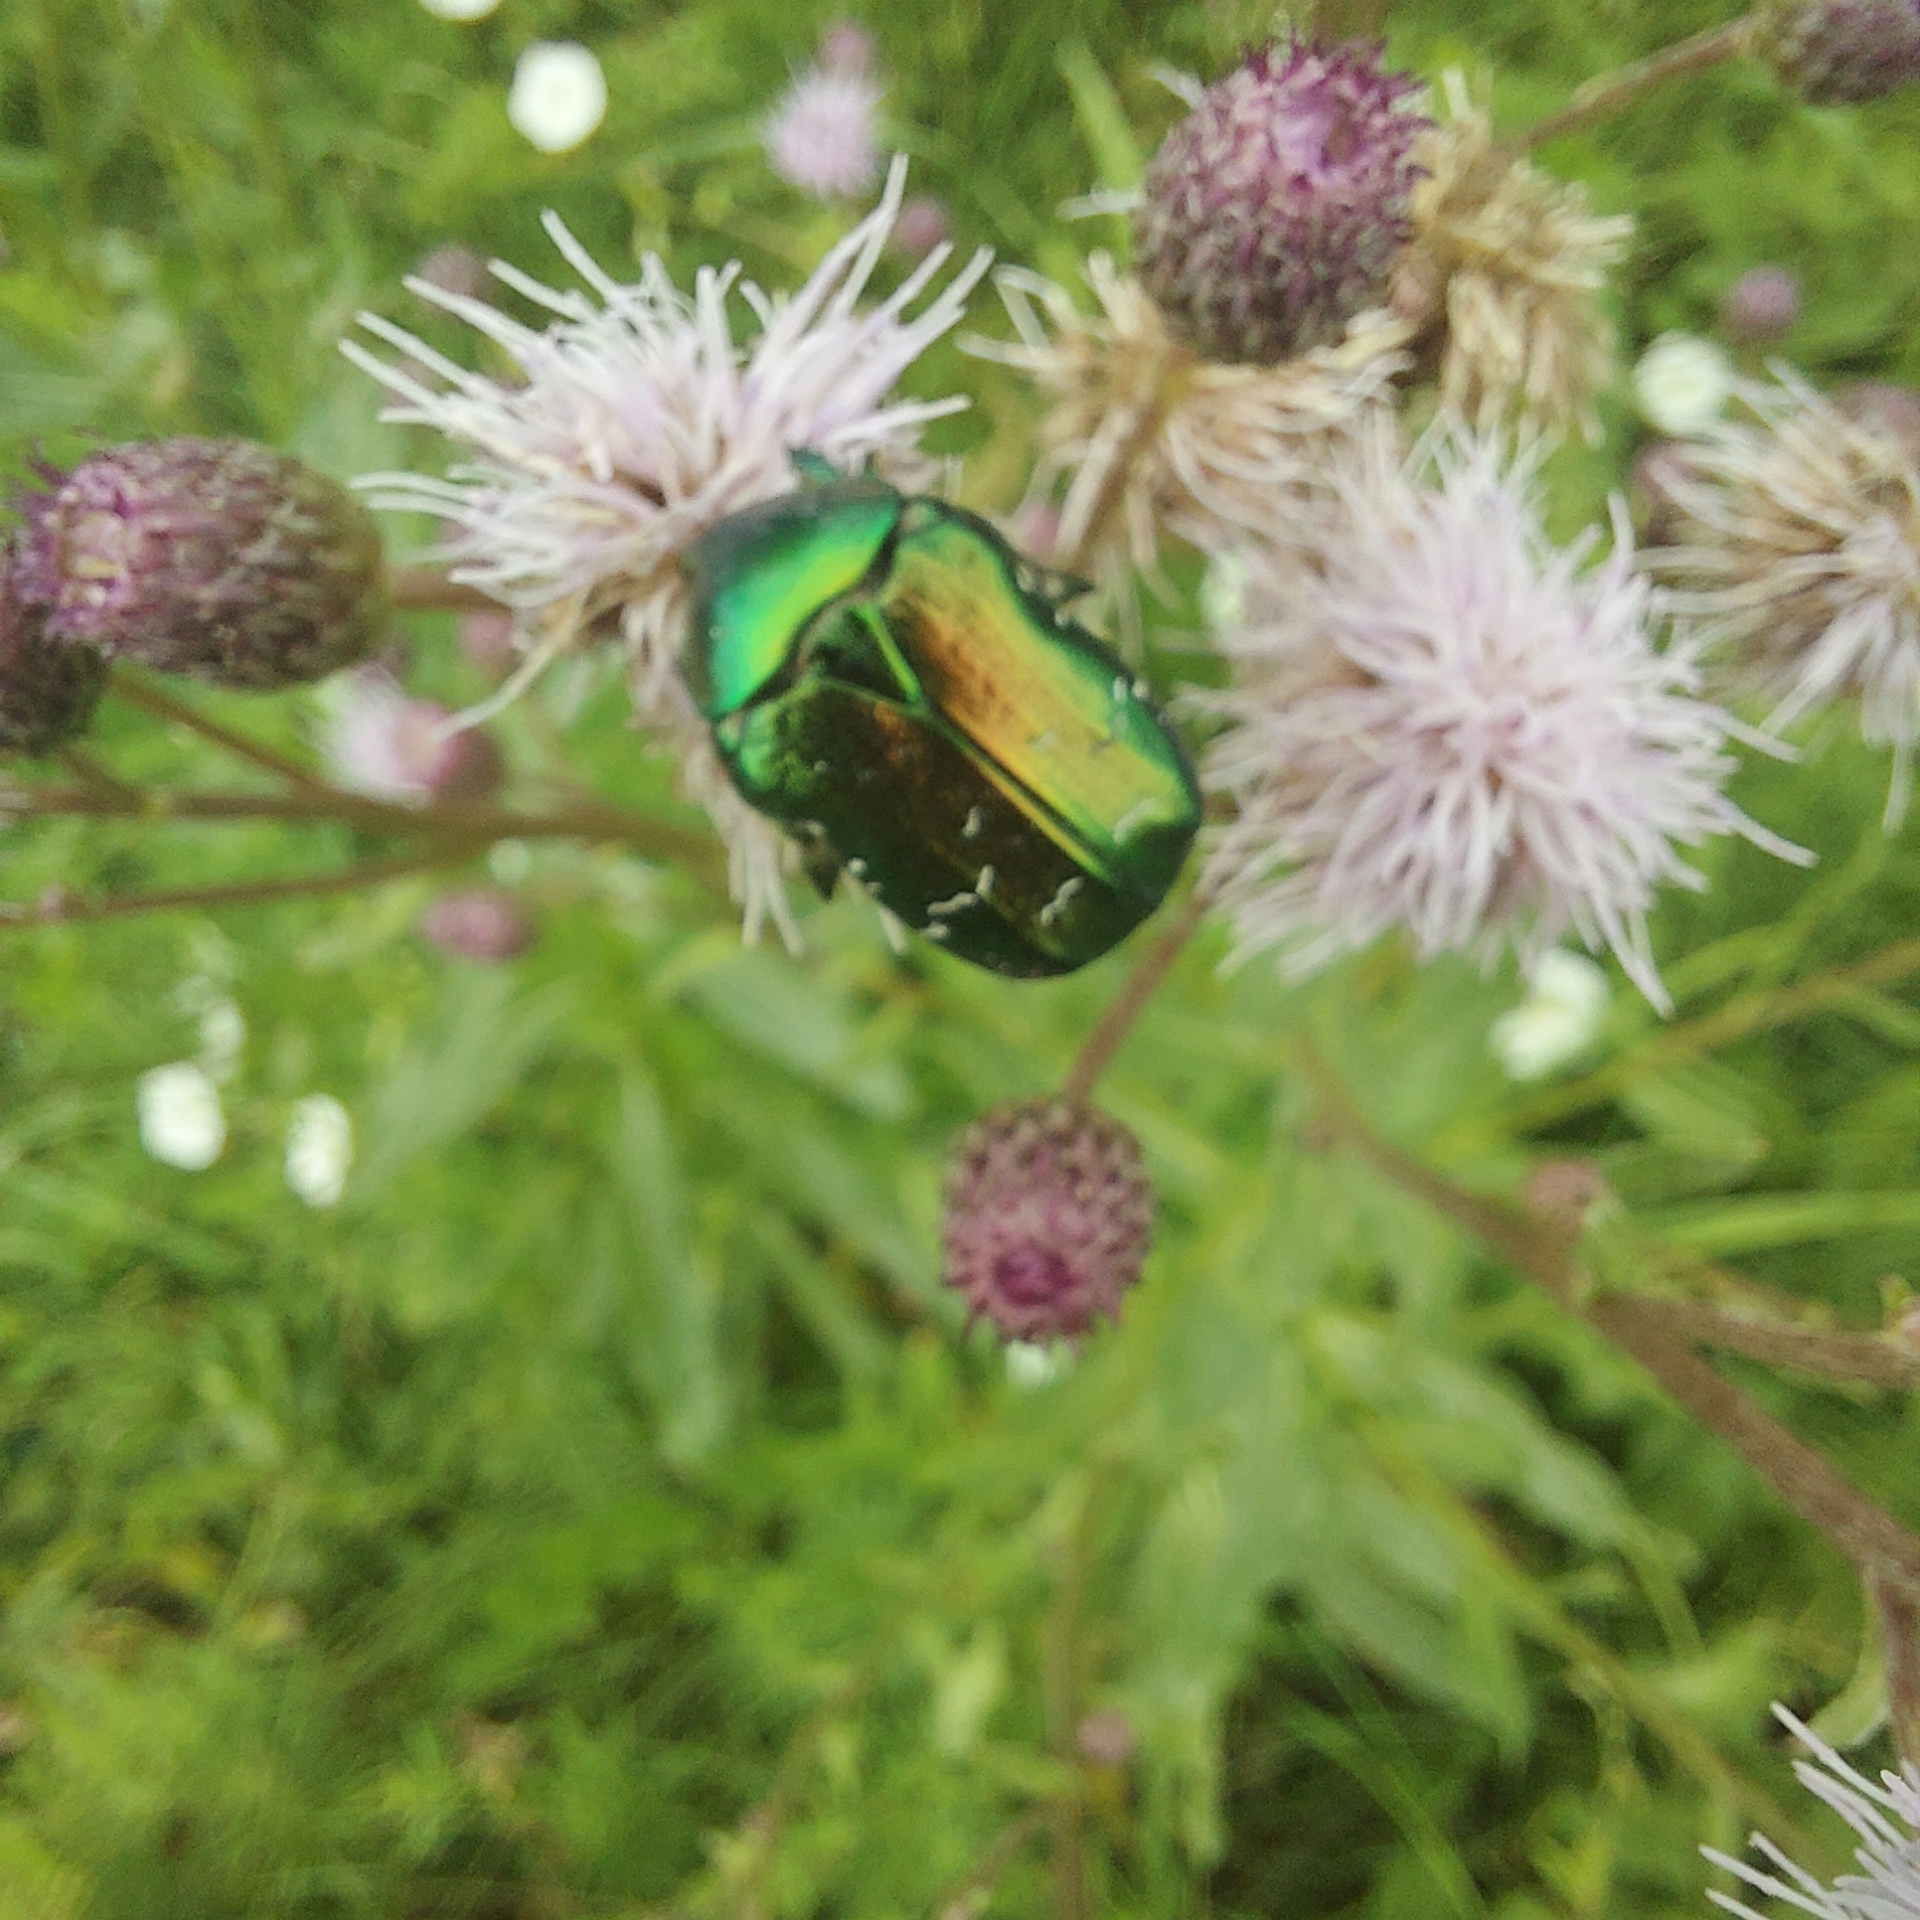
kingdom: Animalia
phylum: Arthropoda
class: Insecta
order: Coleoptera
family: Scarabaeidae
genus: Cetonia
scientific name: Cetonia aurata
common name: Rose chafer
